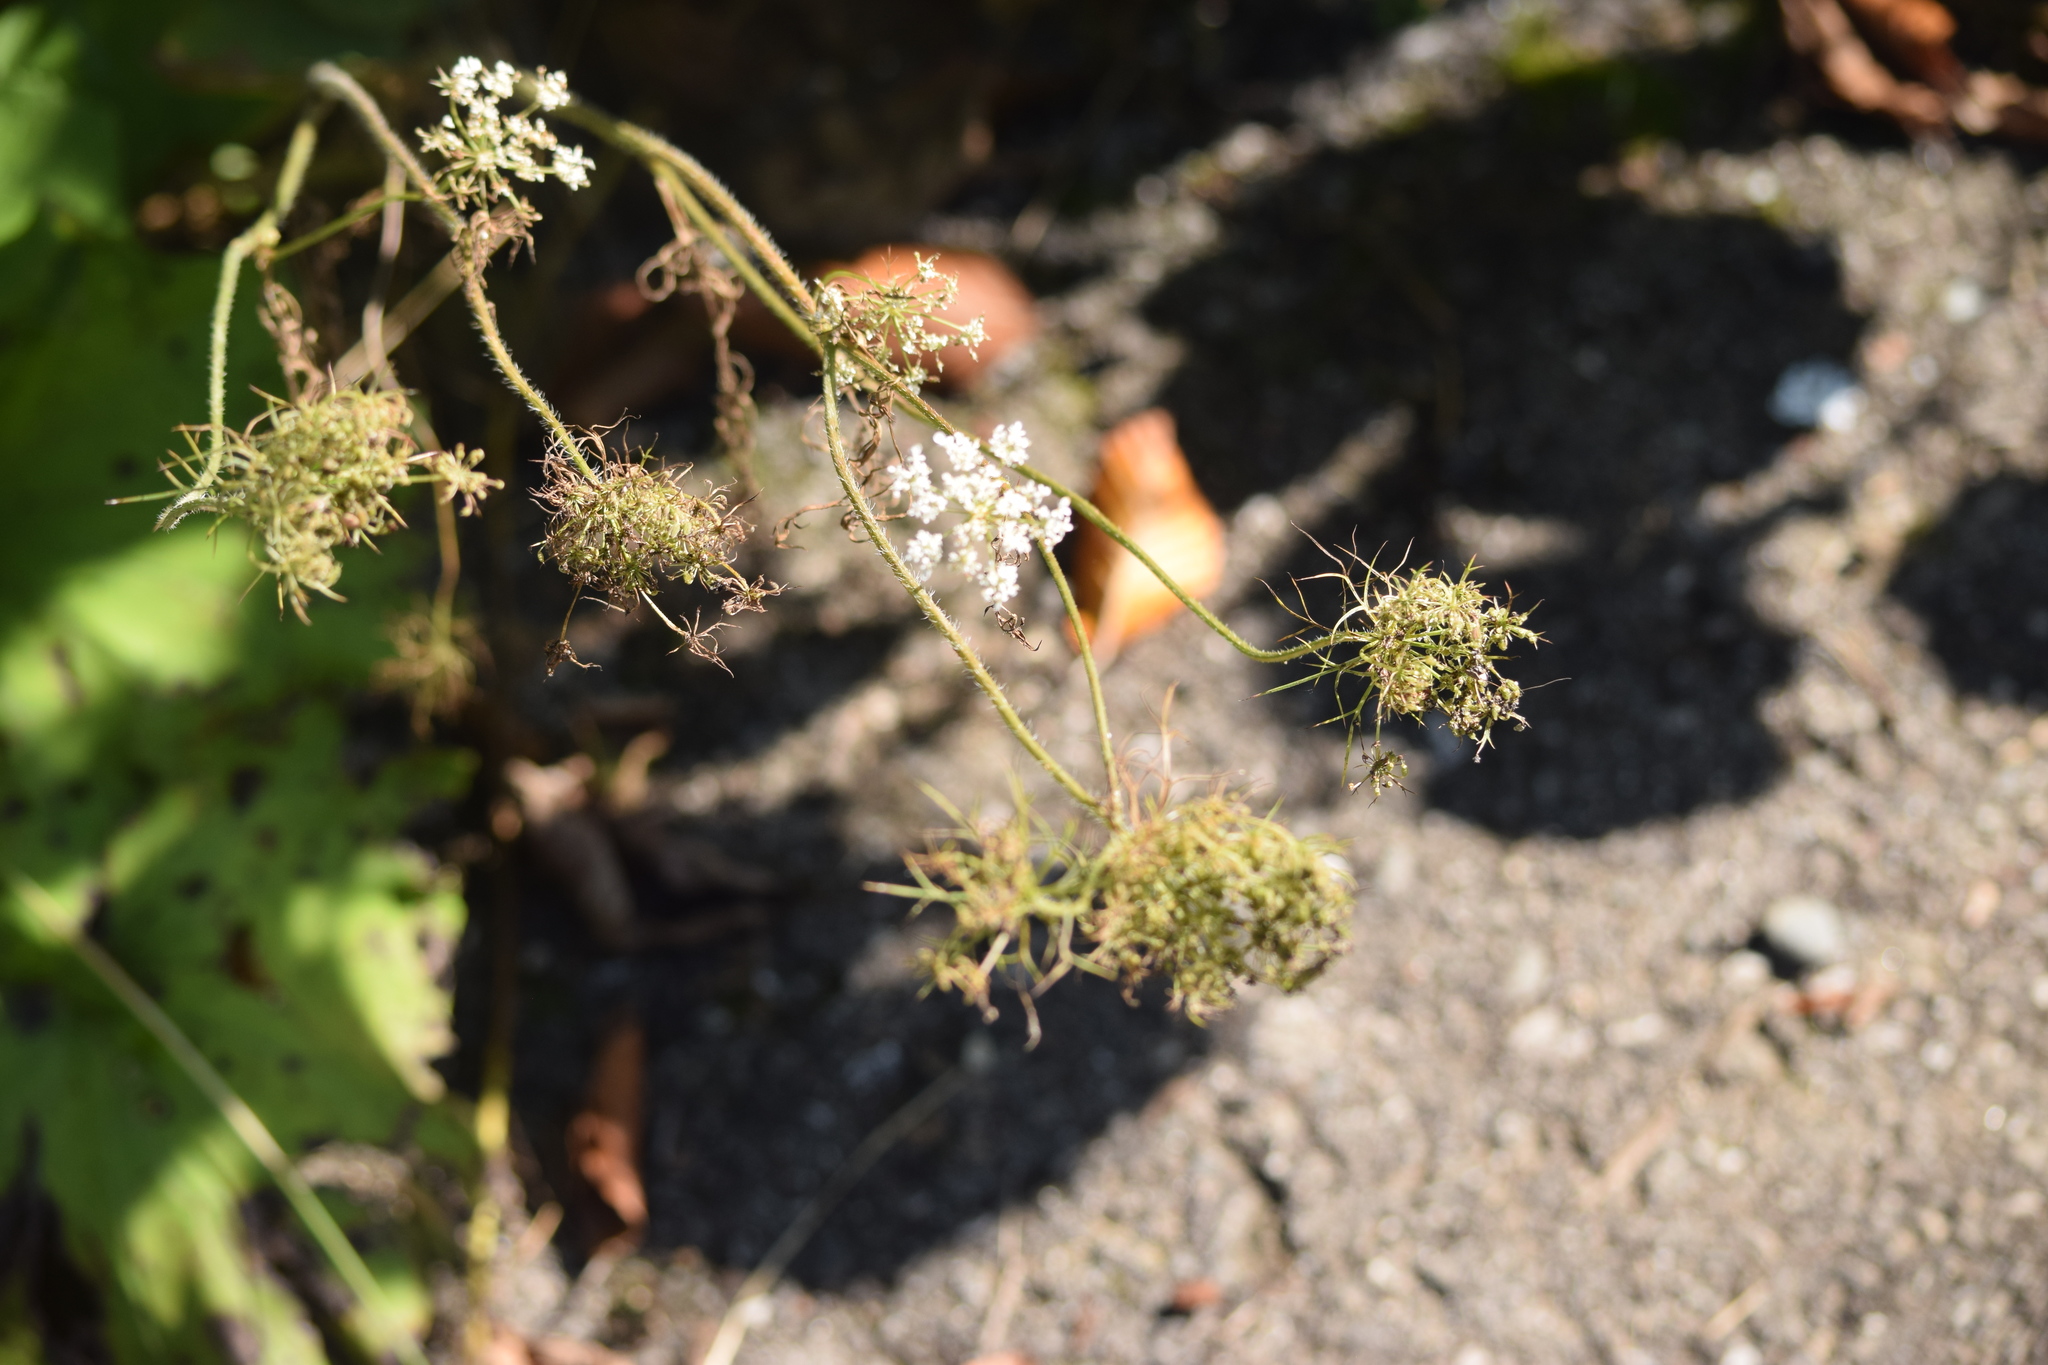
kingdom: Plantae
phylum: Tracheophyta
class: Magnoliopsida
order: Apiales
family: Apiaceae
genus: Daucus
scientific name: Daucus carota
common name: Wild carrot
